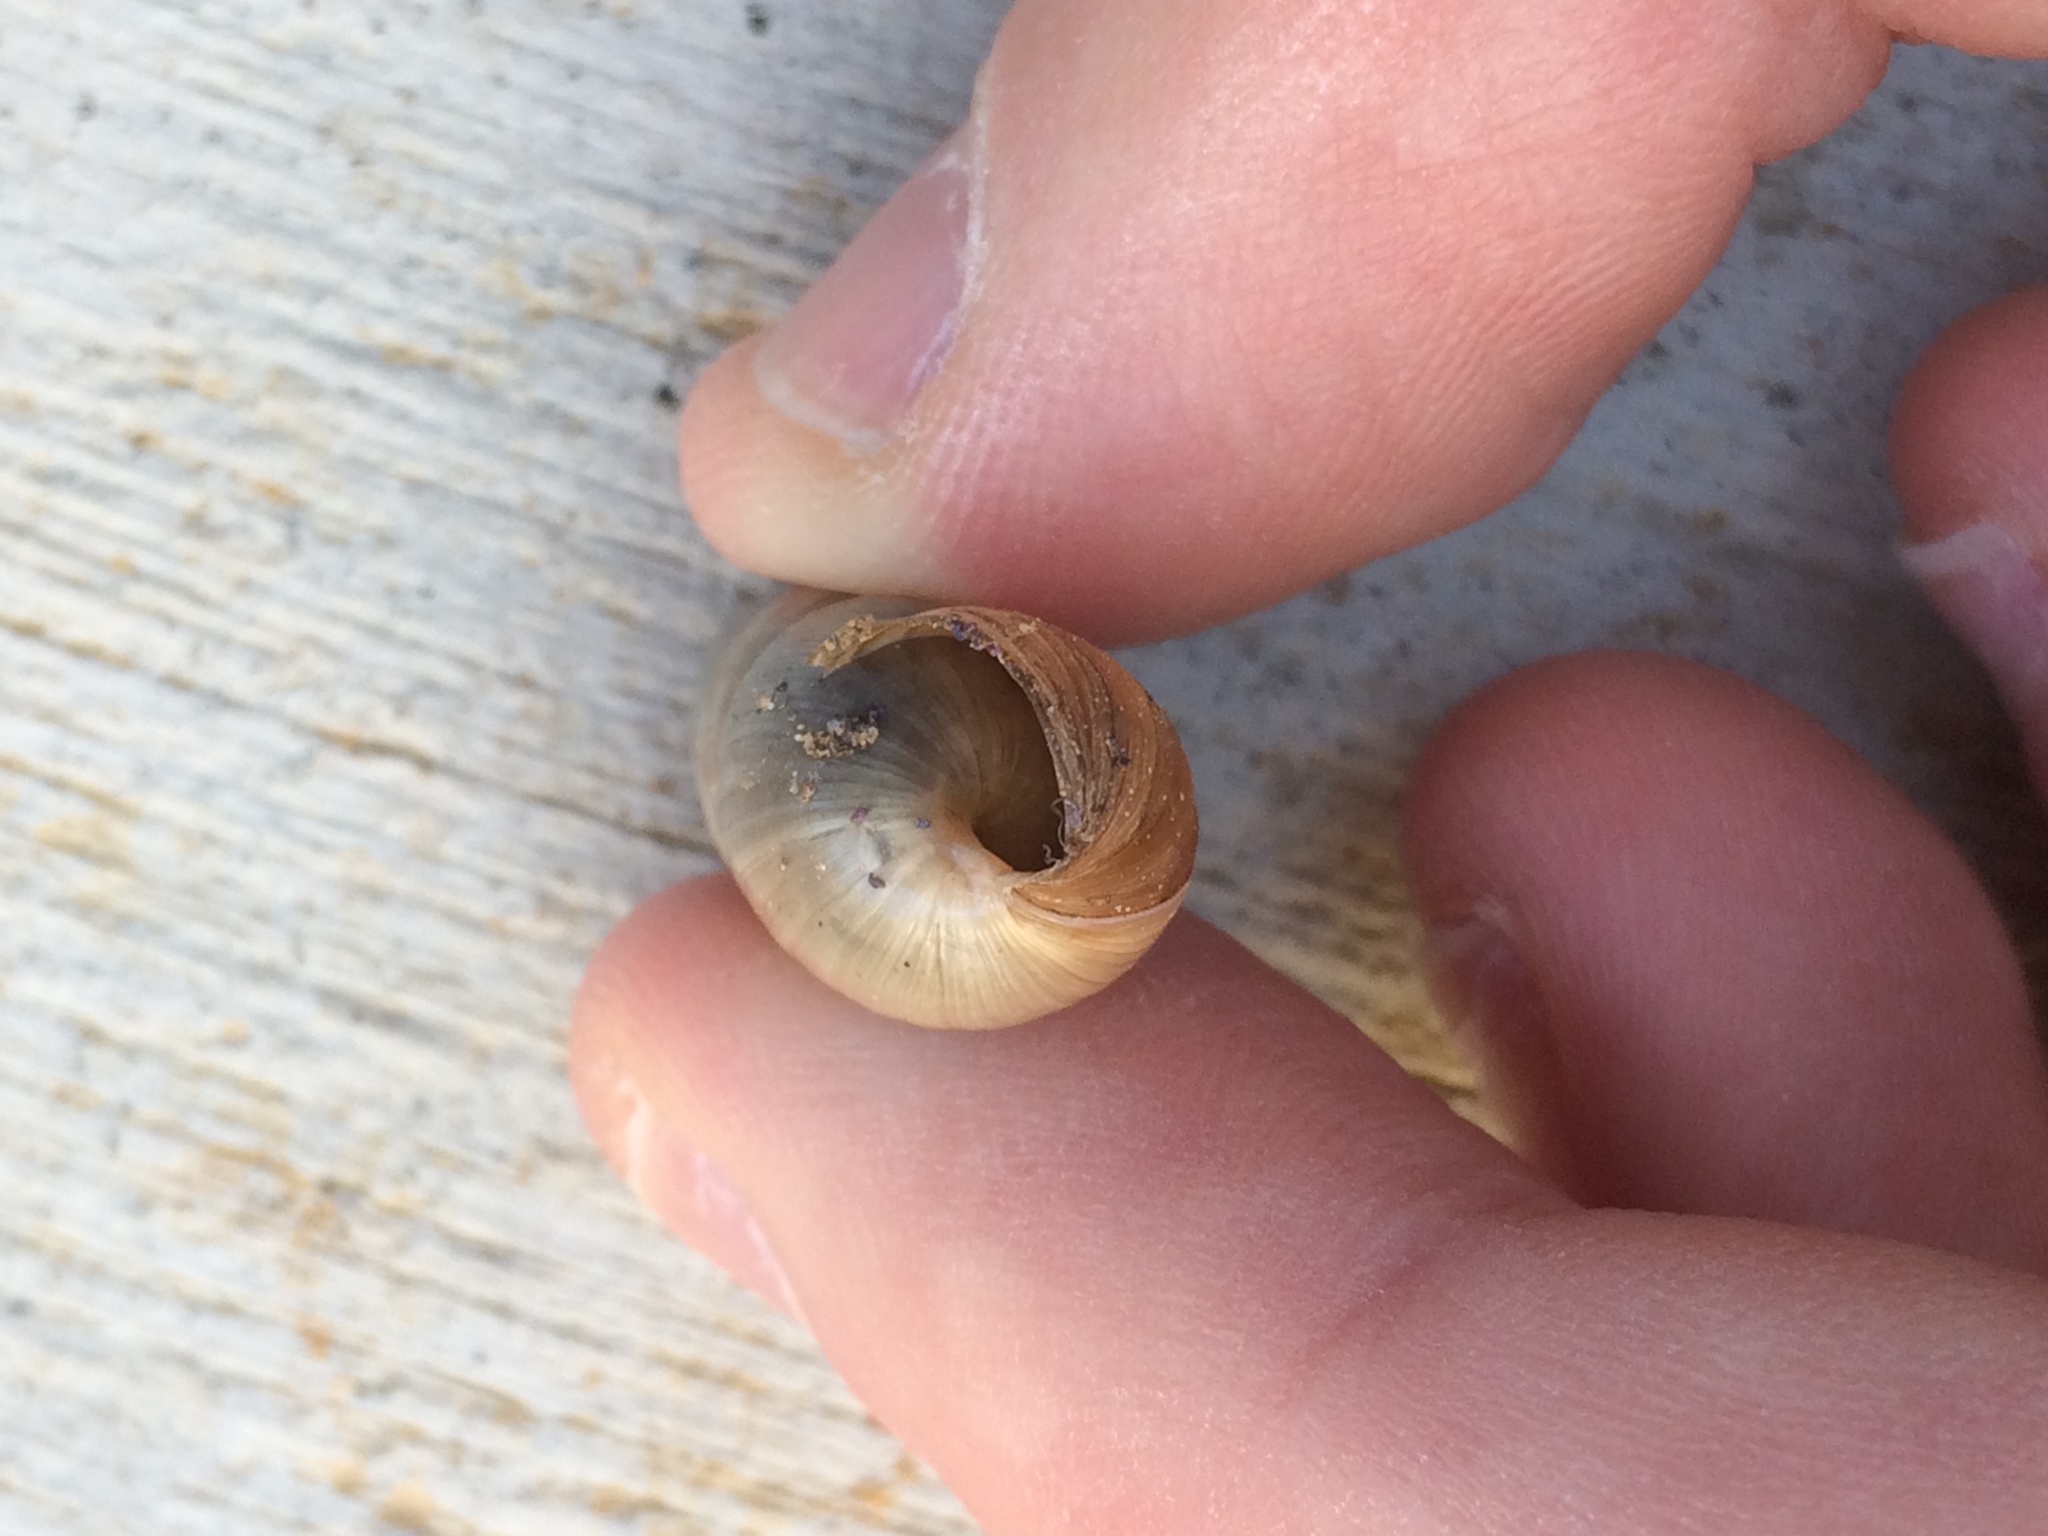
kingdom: Animalia
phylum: Mollusca
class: Gastropoda
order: Stylommatophora
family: Achatinidae
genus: Rumina
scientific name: Rumina decollata
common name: Decollate snail
